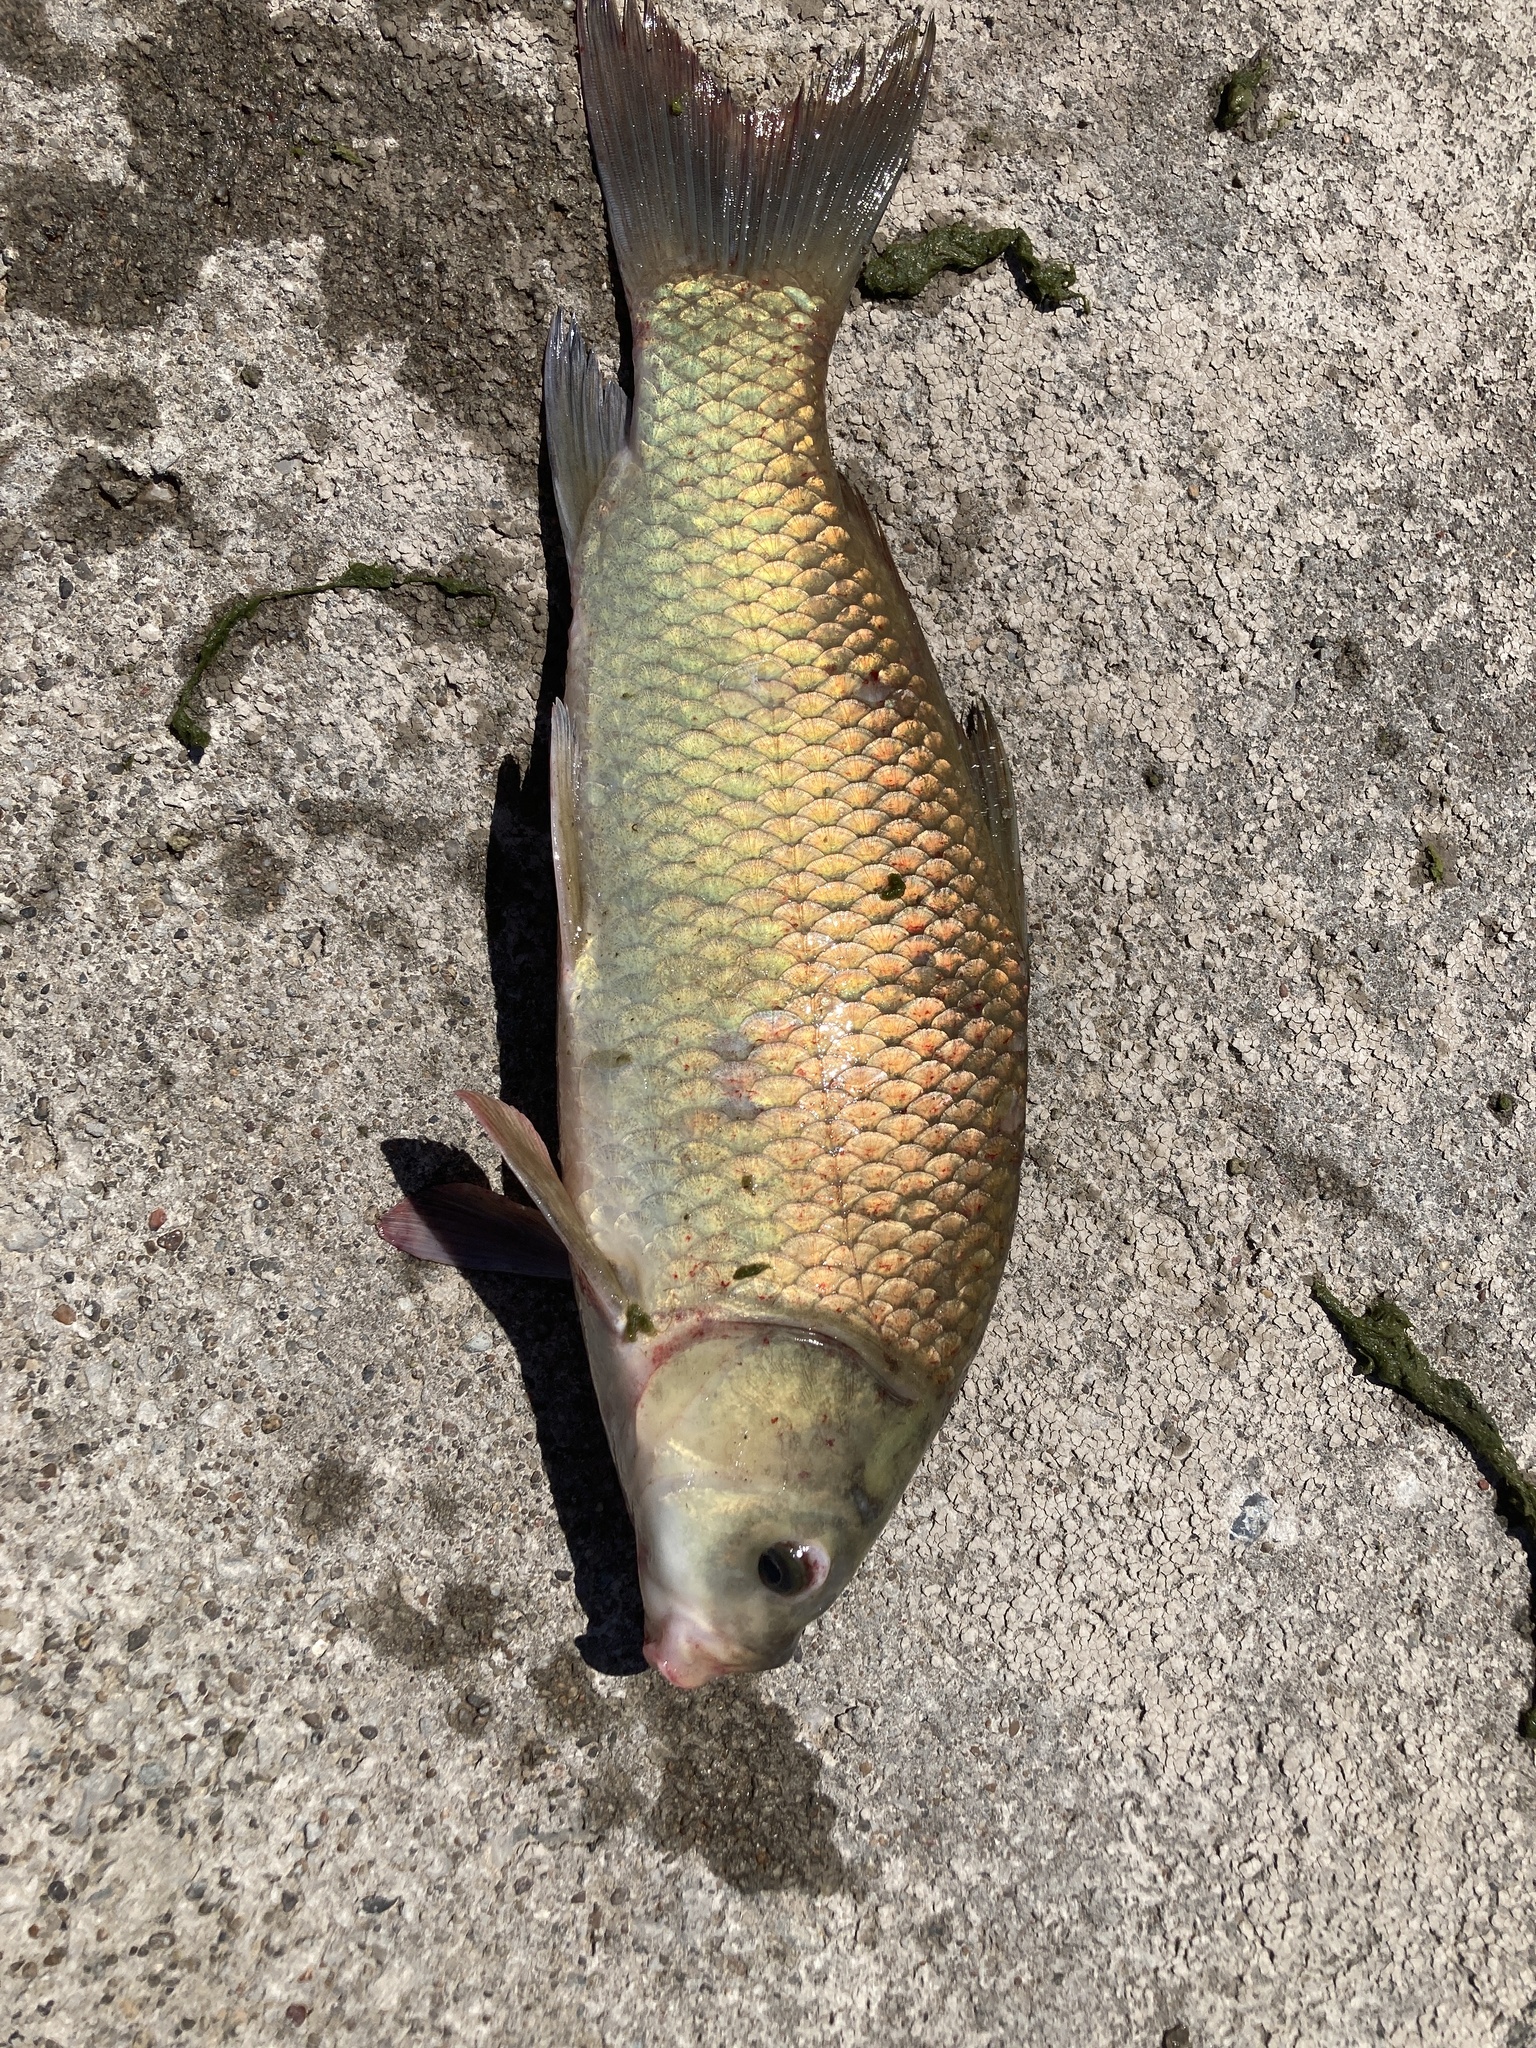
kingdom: Animalia
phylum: Chordata
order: Cypriniformes
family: Catostomidae
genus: Ictiobus
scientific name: Ictiobus bubalus
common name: Smallmouth buffalo
